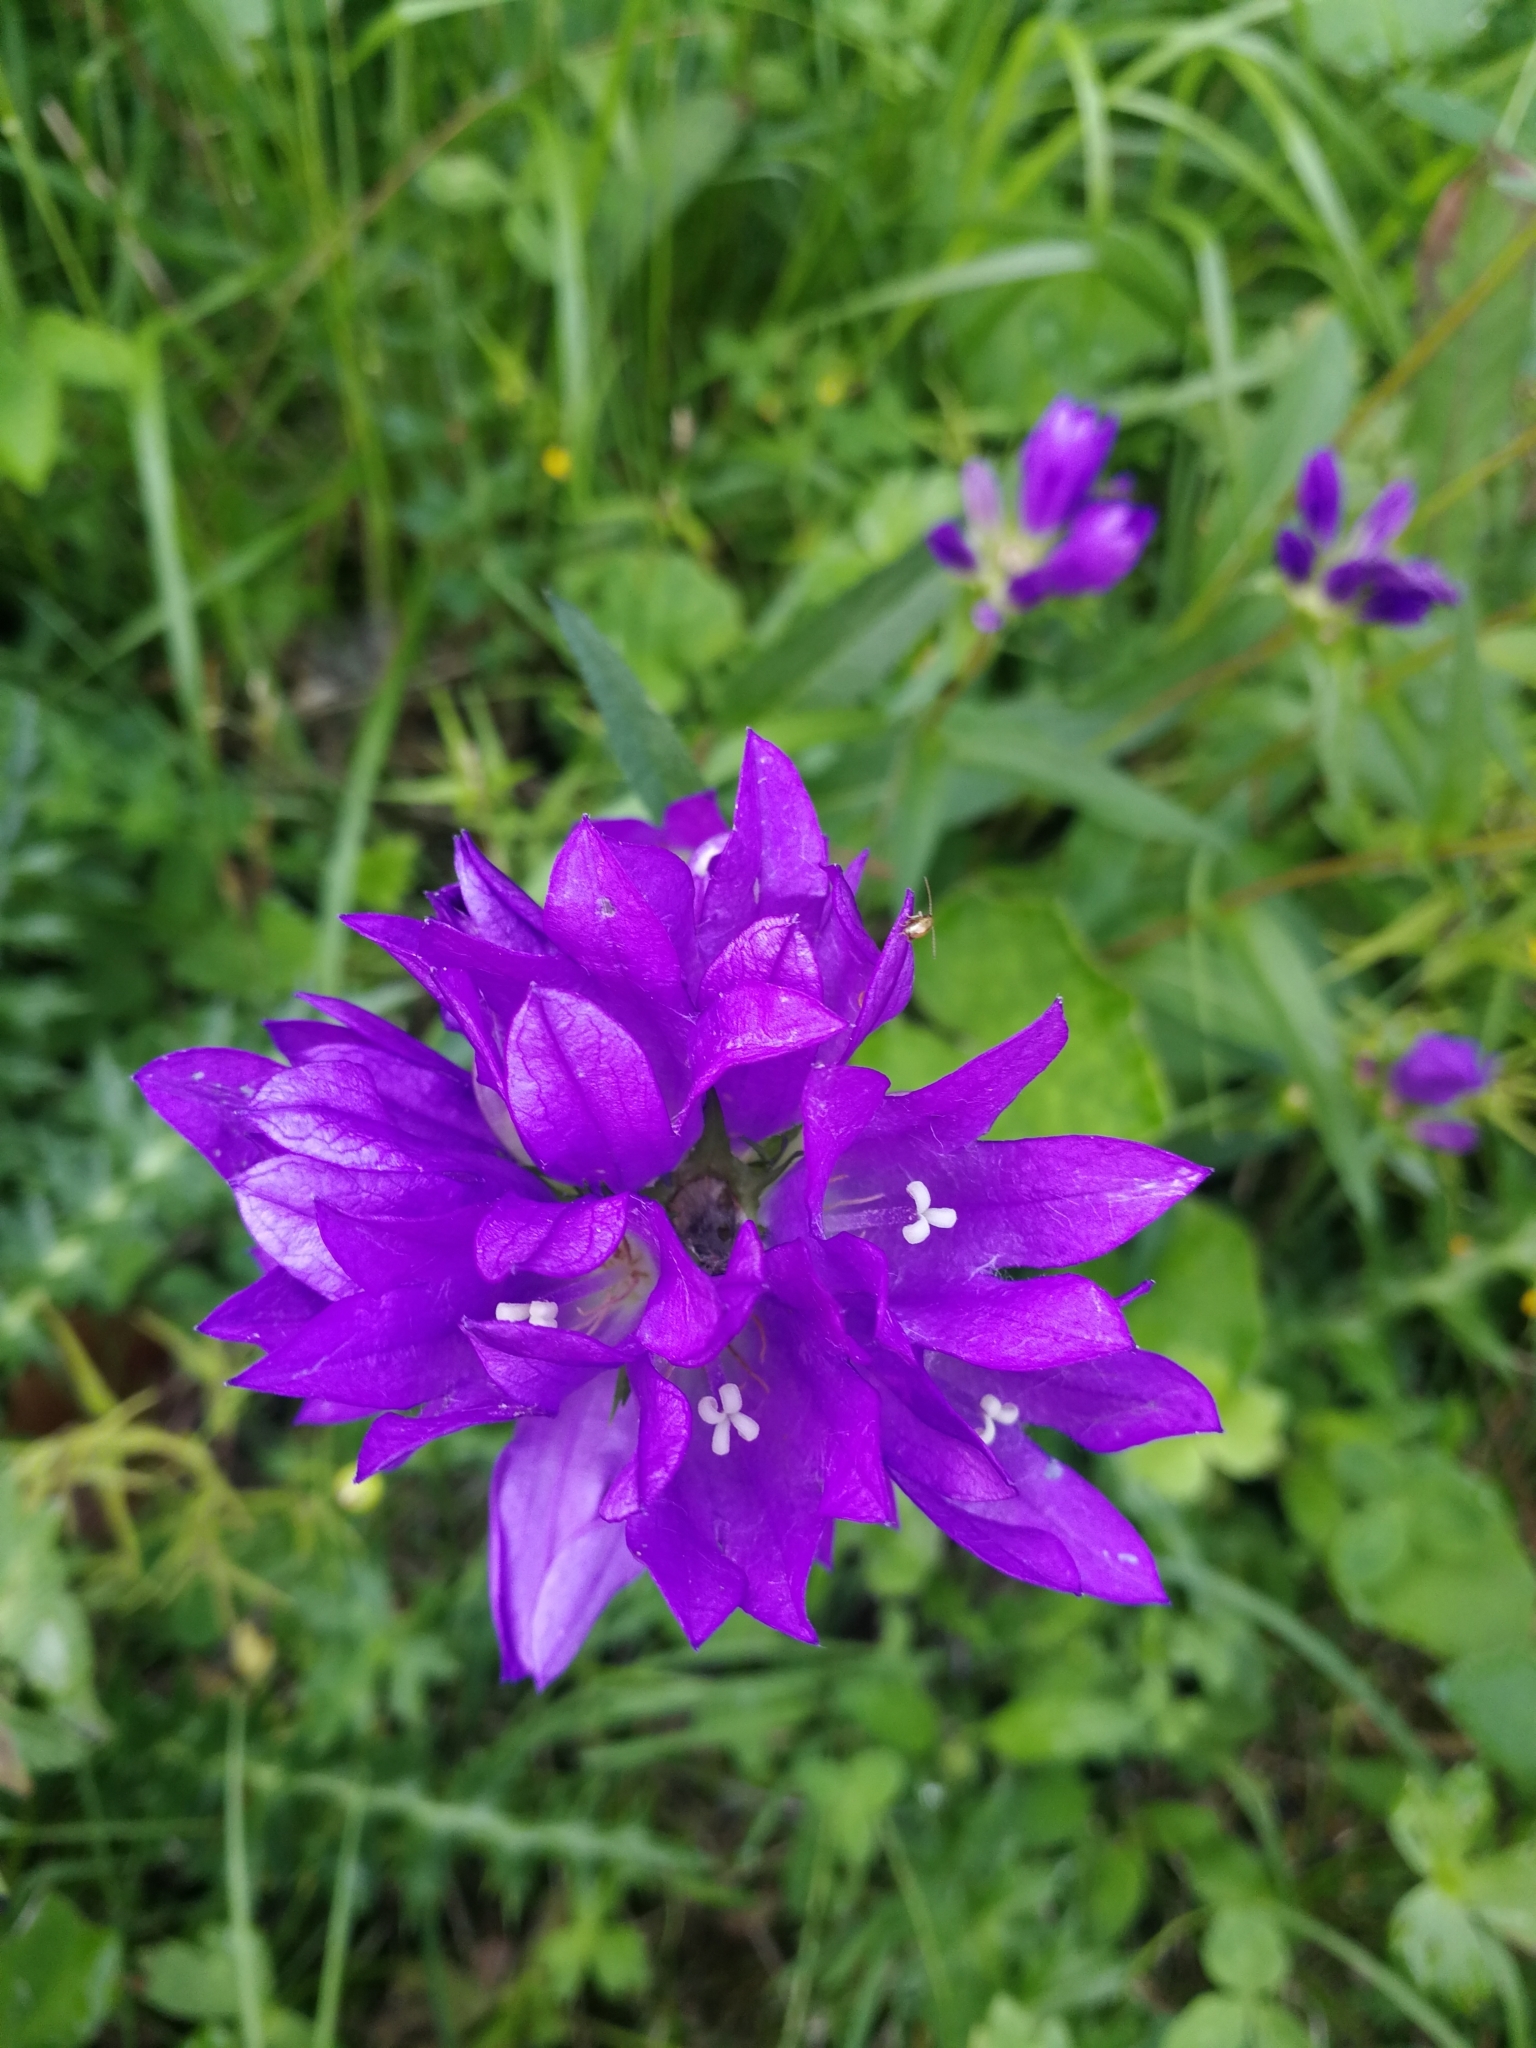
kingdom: Plantae
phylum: Tracheophyta
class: Magnoliopsida
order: Asterales
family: Campanulaceae
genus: Campanula
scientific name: Campanula glomerata
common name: Clustered bellflower
